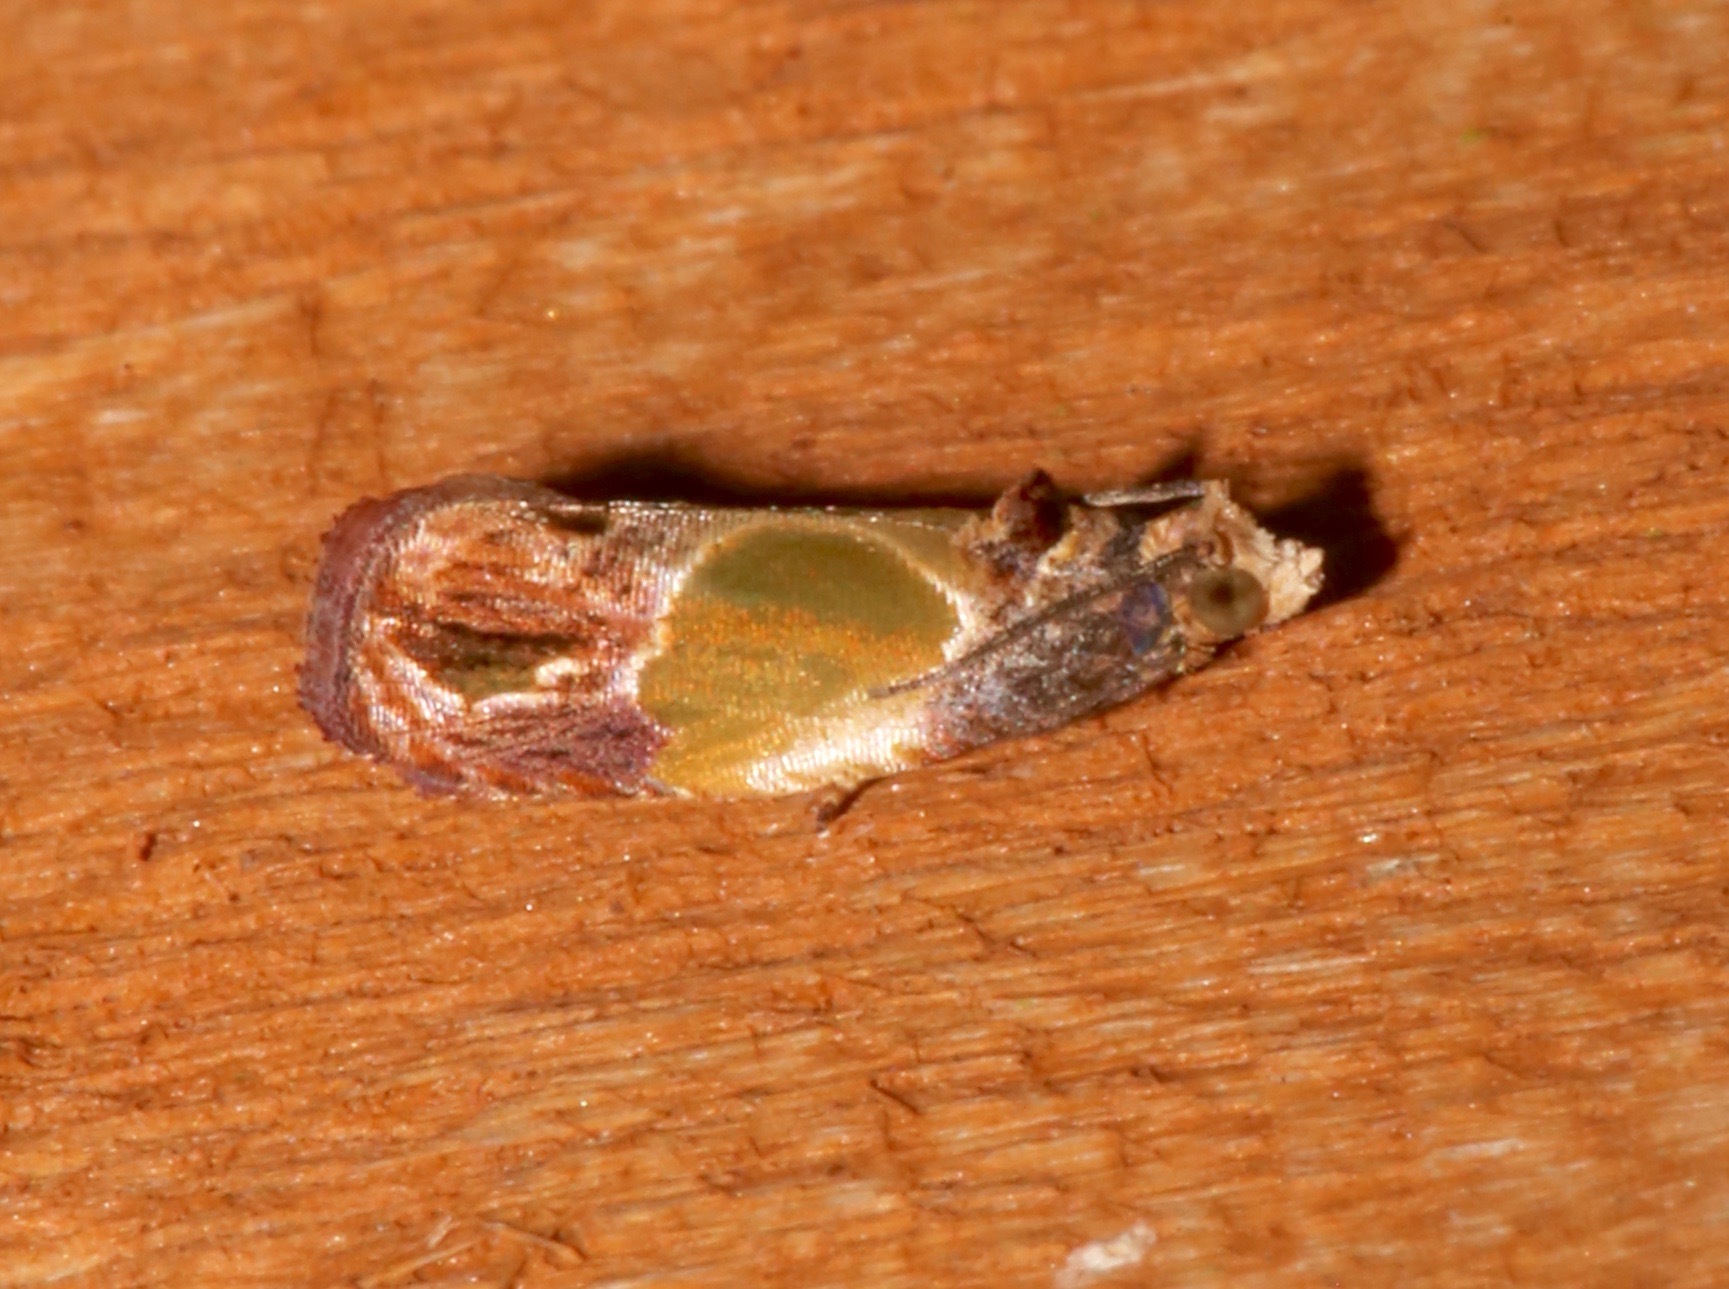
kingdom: Animalia
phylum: Arthropoda
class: Insecta
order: Lepidoptera
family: Tortricidae
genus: Eumarozia
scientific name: Eumarozia malachitana
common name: Sculptured moth
